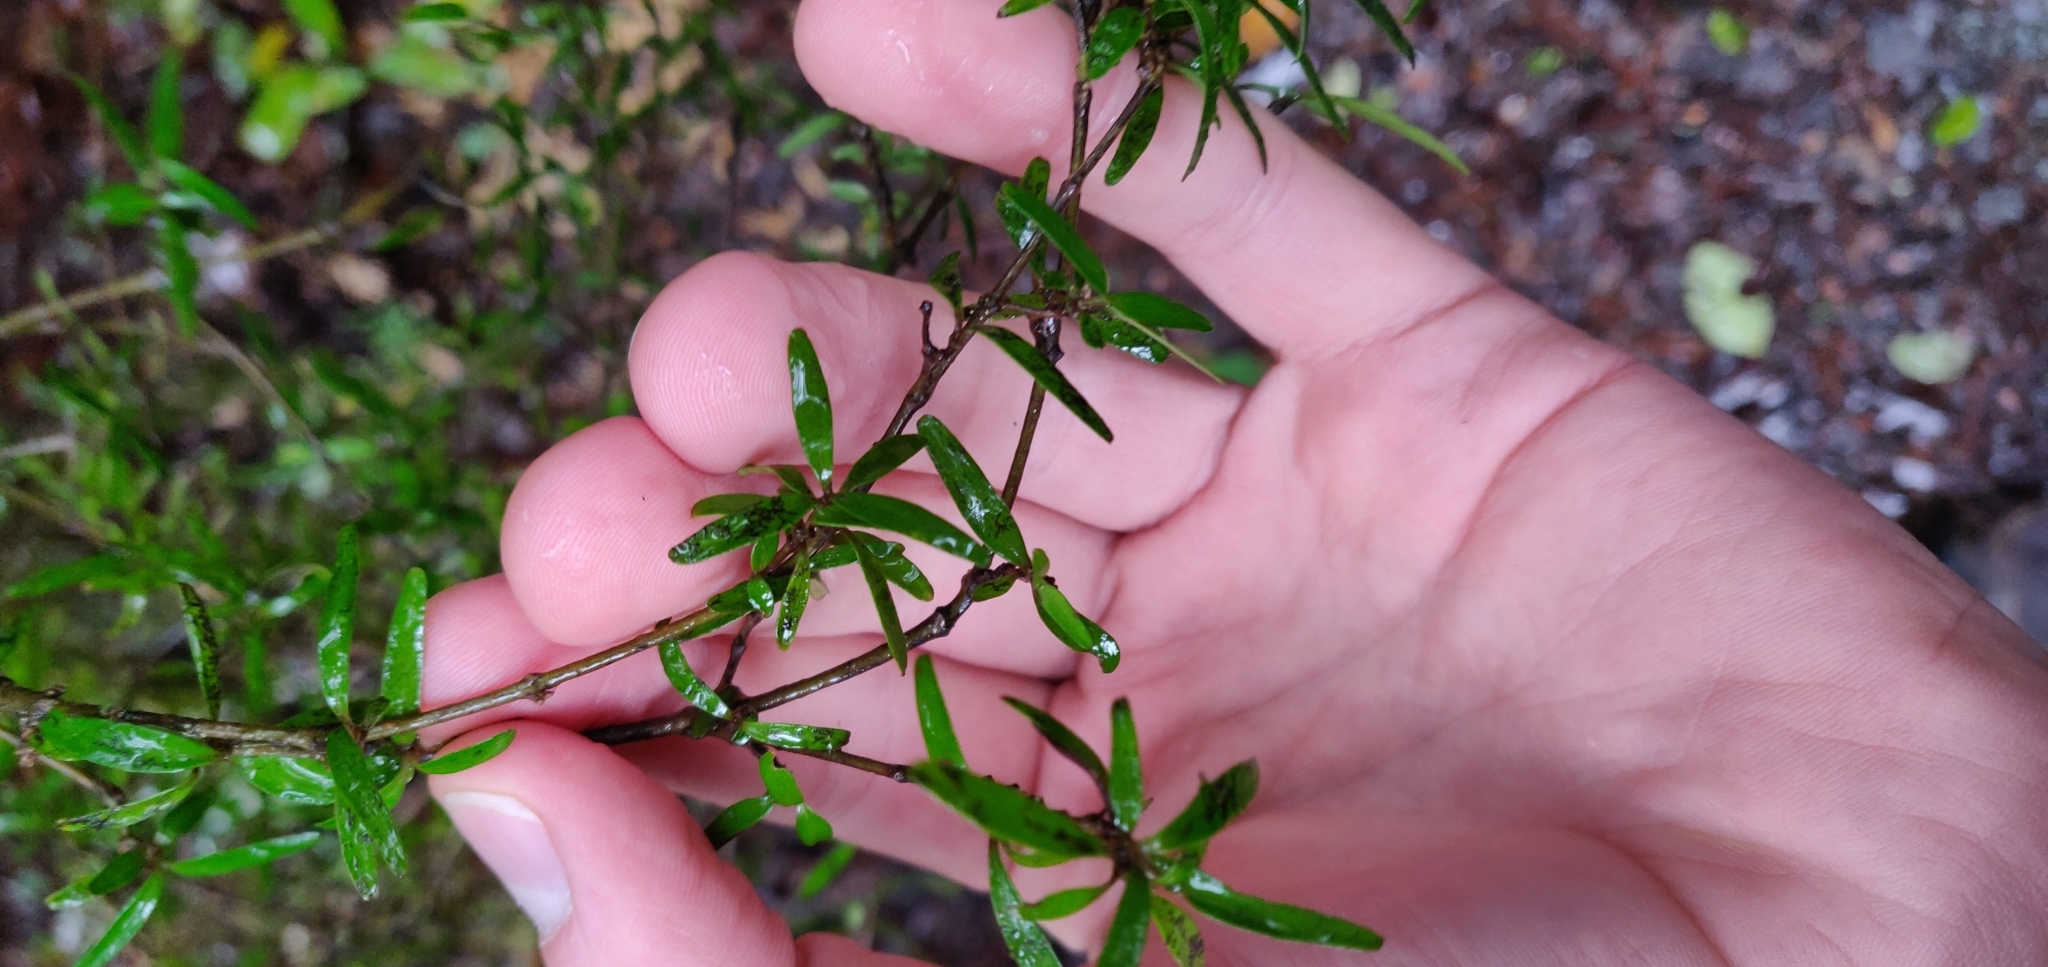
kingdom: Plantae
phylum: Tracheophyta
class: Magnoliopsida
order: Gentianales
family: Rubiaceae
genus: Coprosma
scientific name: Coprosma linariifolia
